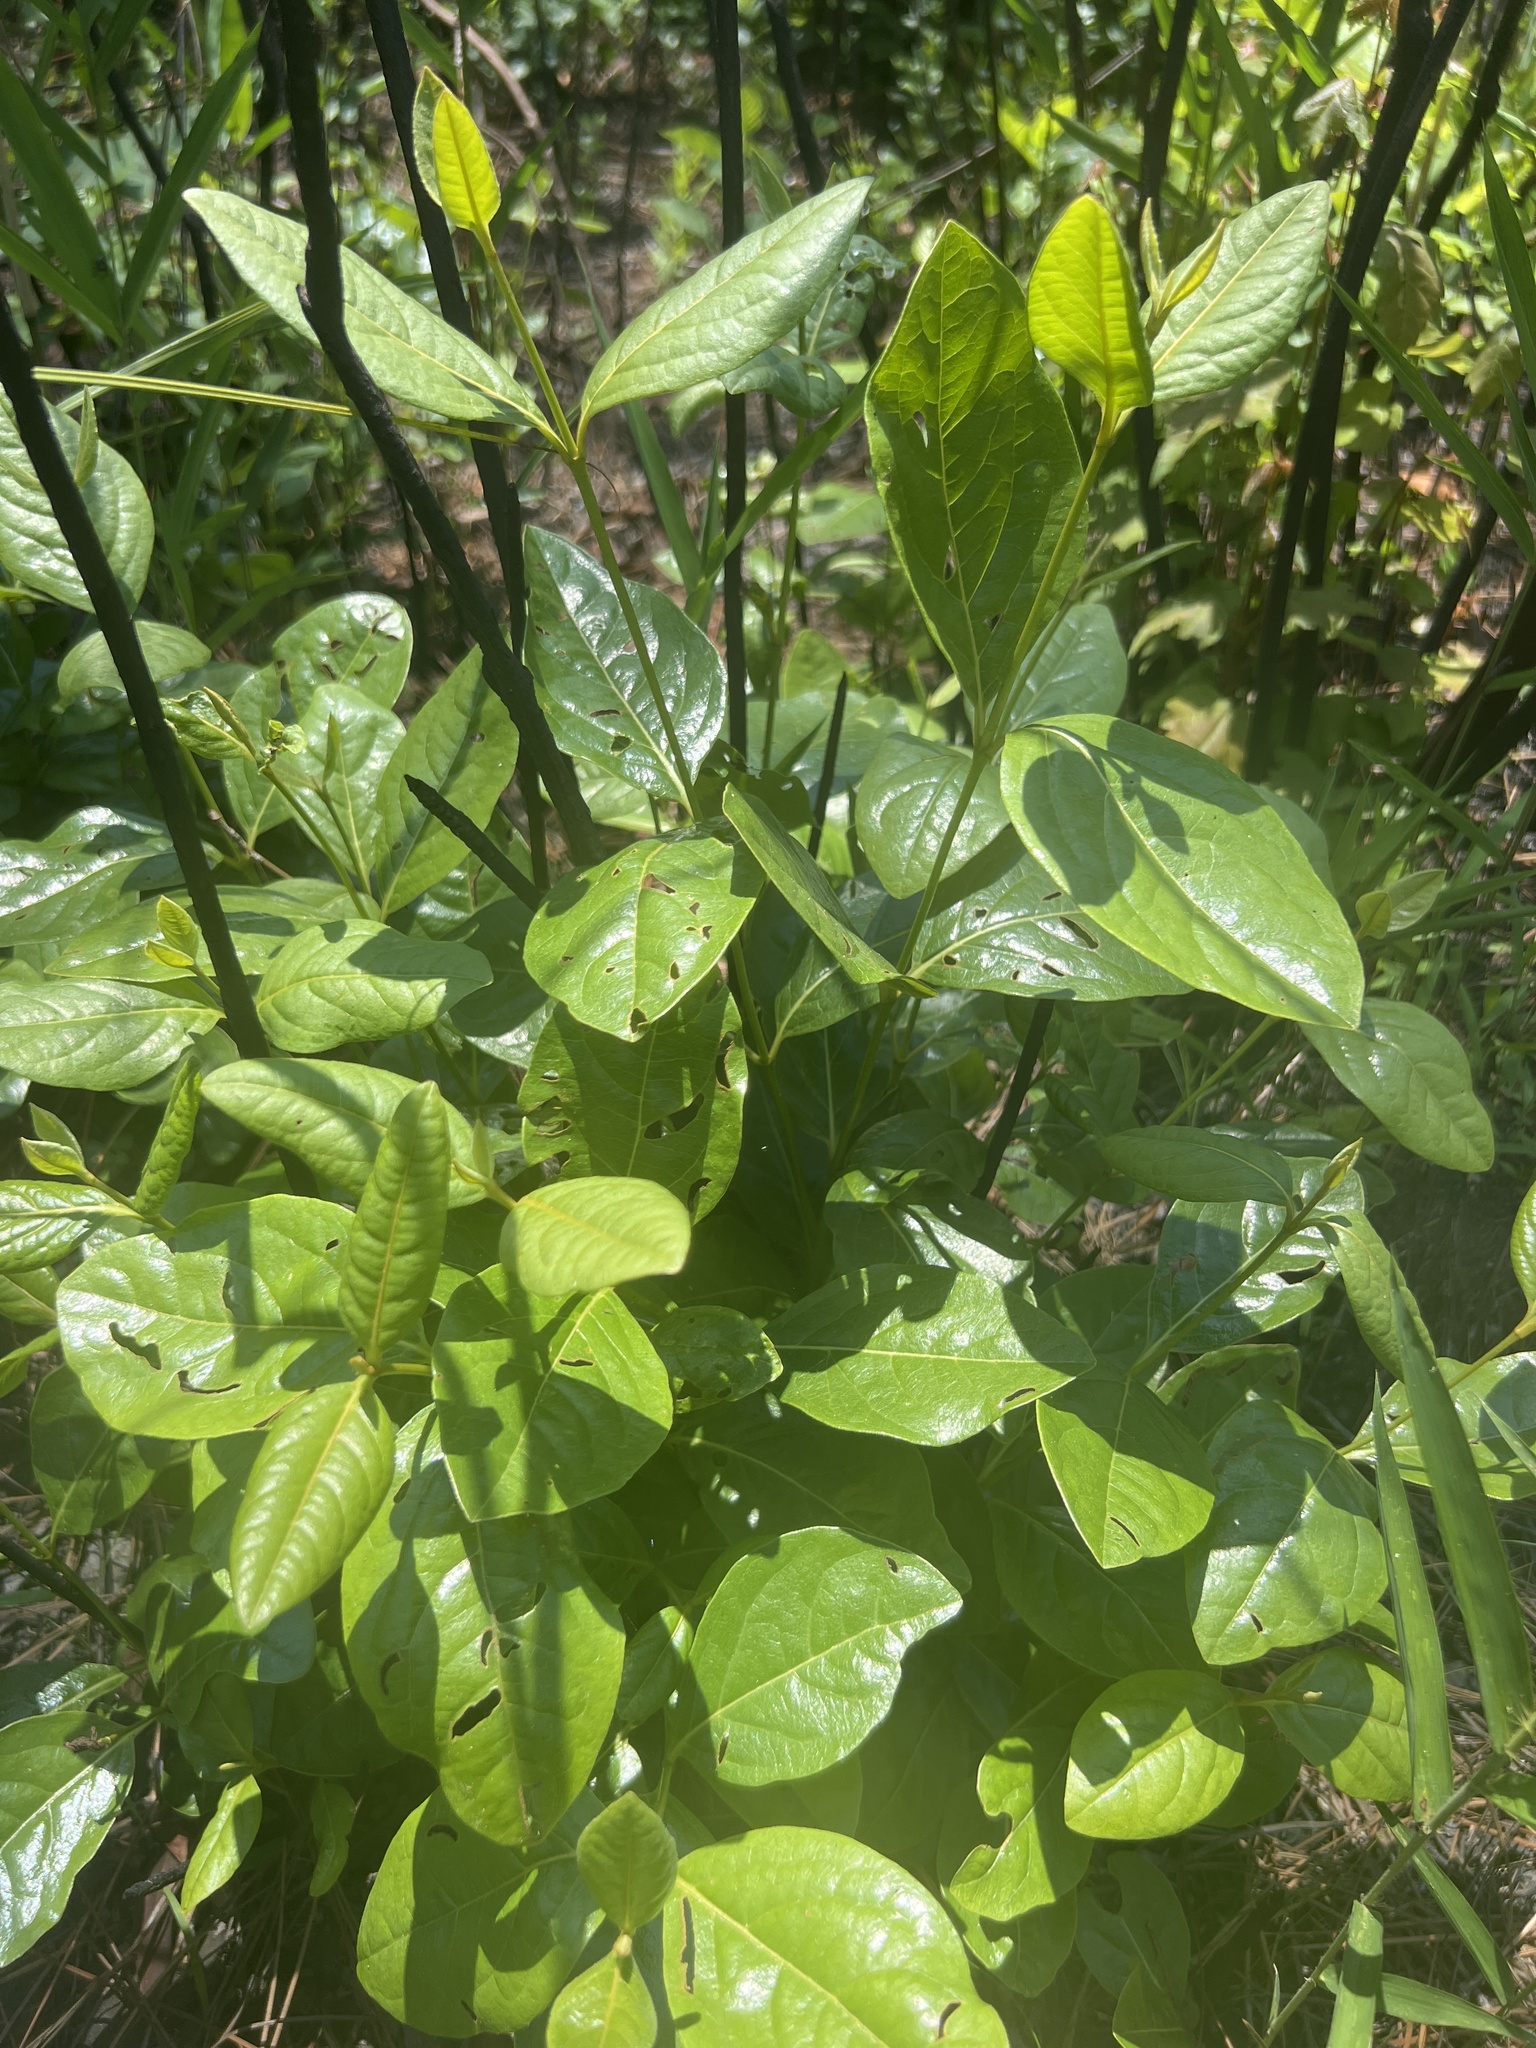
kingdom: Plantae
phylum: Tracheophyta
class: Magnoliopsida
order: Dipsacales
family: Viburnaceae
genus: Viburnum
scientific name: Viburnum nudum
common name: Possum haw
